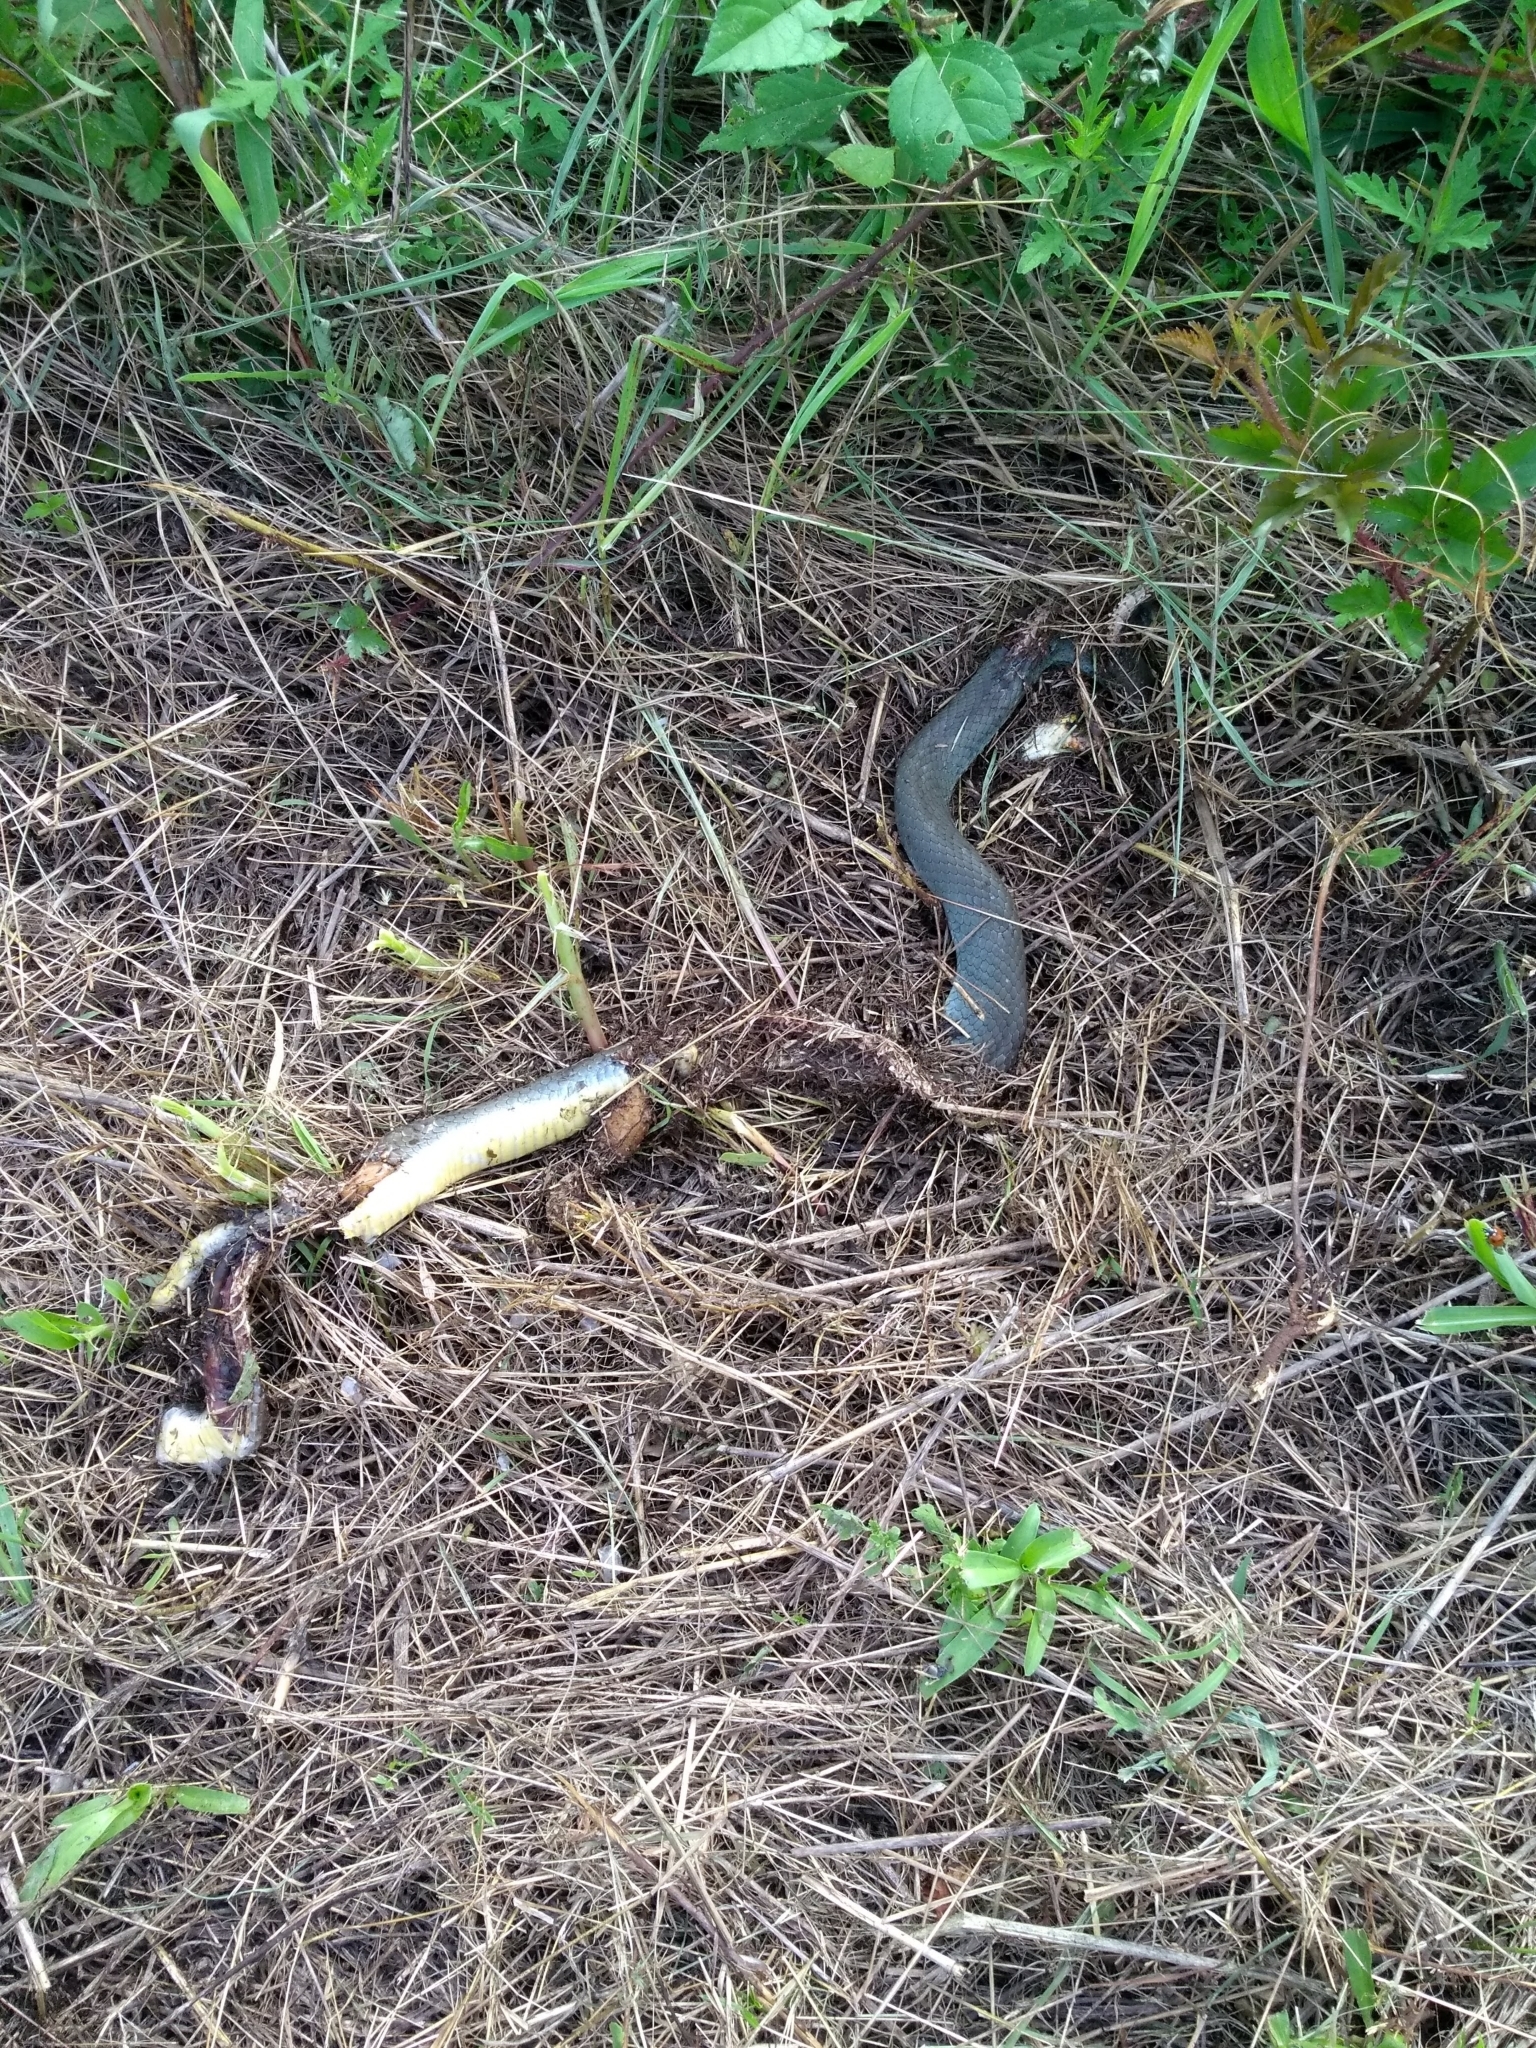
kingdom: Animalia
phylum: Chordata
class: Squamata
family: Colubridae
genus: Coluber
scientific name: Coluber constrictor
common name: Eastern racer
